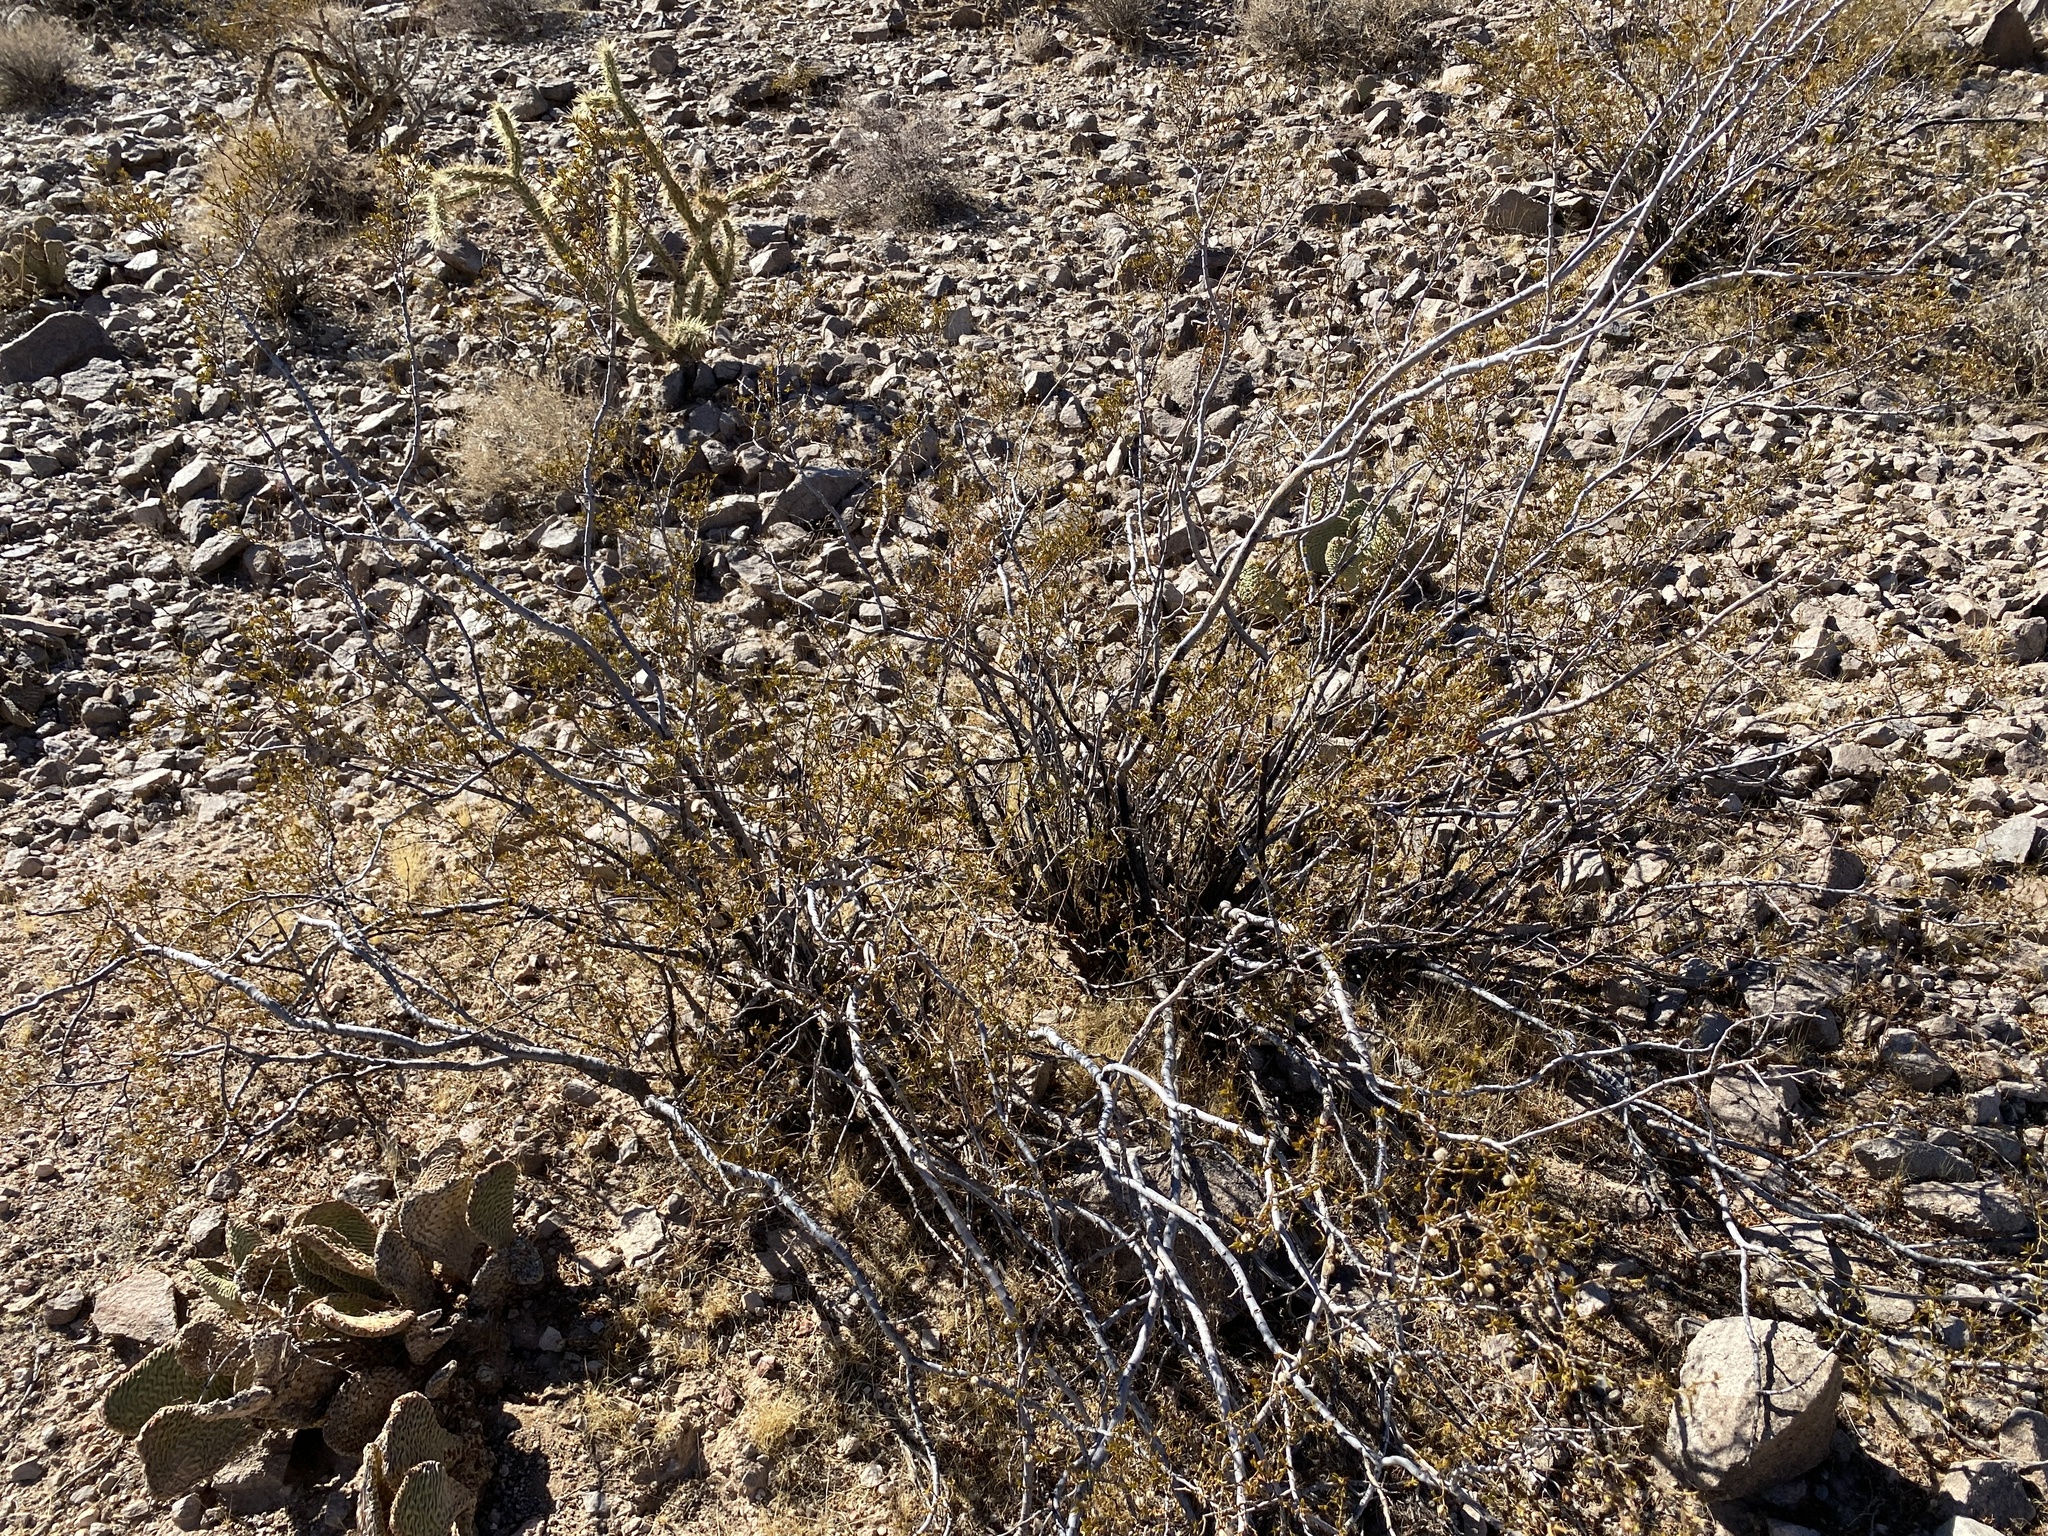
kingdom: Plantae
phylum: Tracheophyta
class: Magnoliopsida
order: Zygophyllales
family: Zygophyllaceae
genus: Larrea
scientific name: Larrea tridentata
